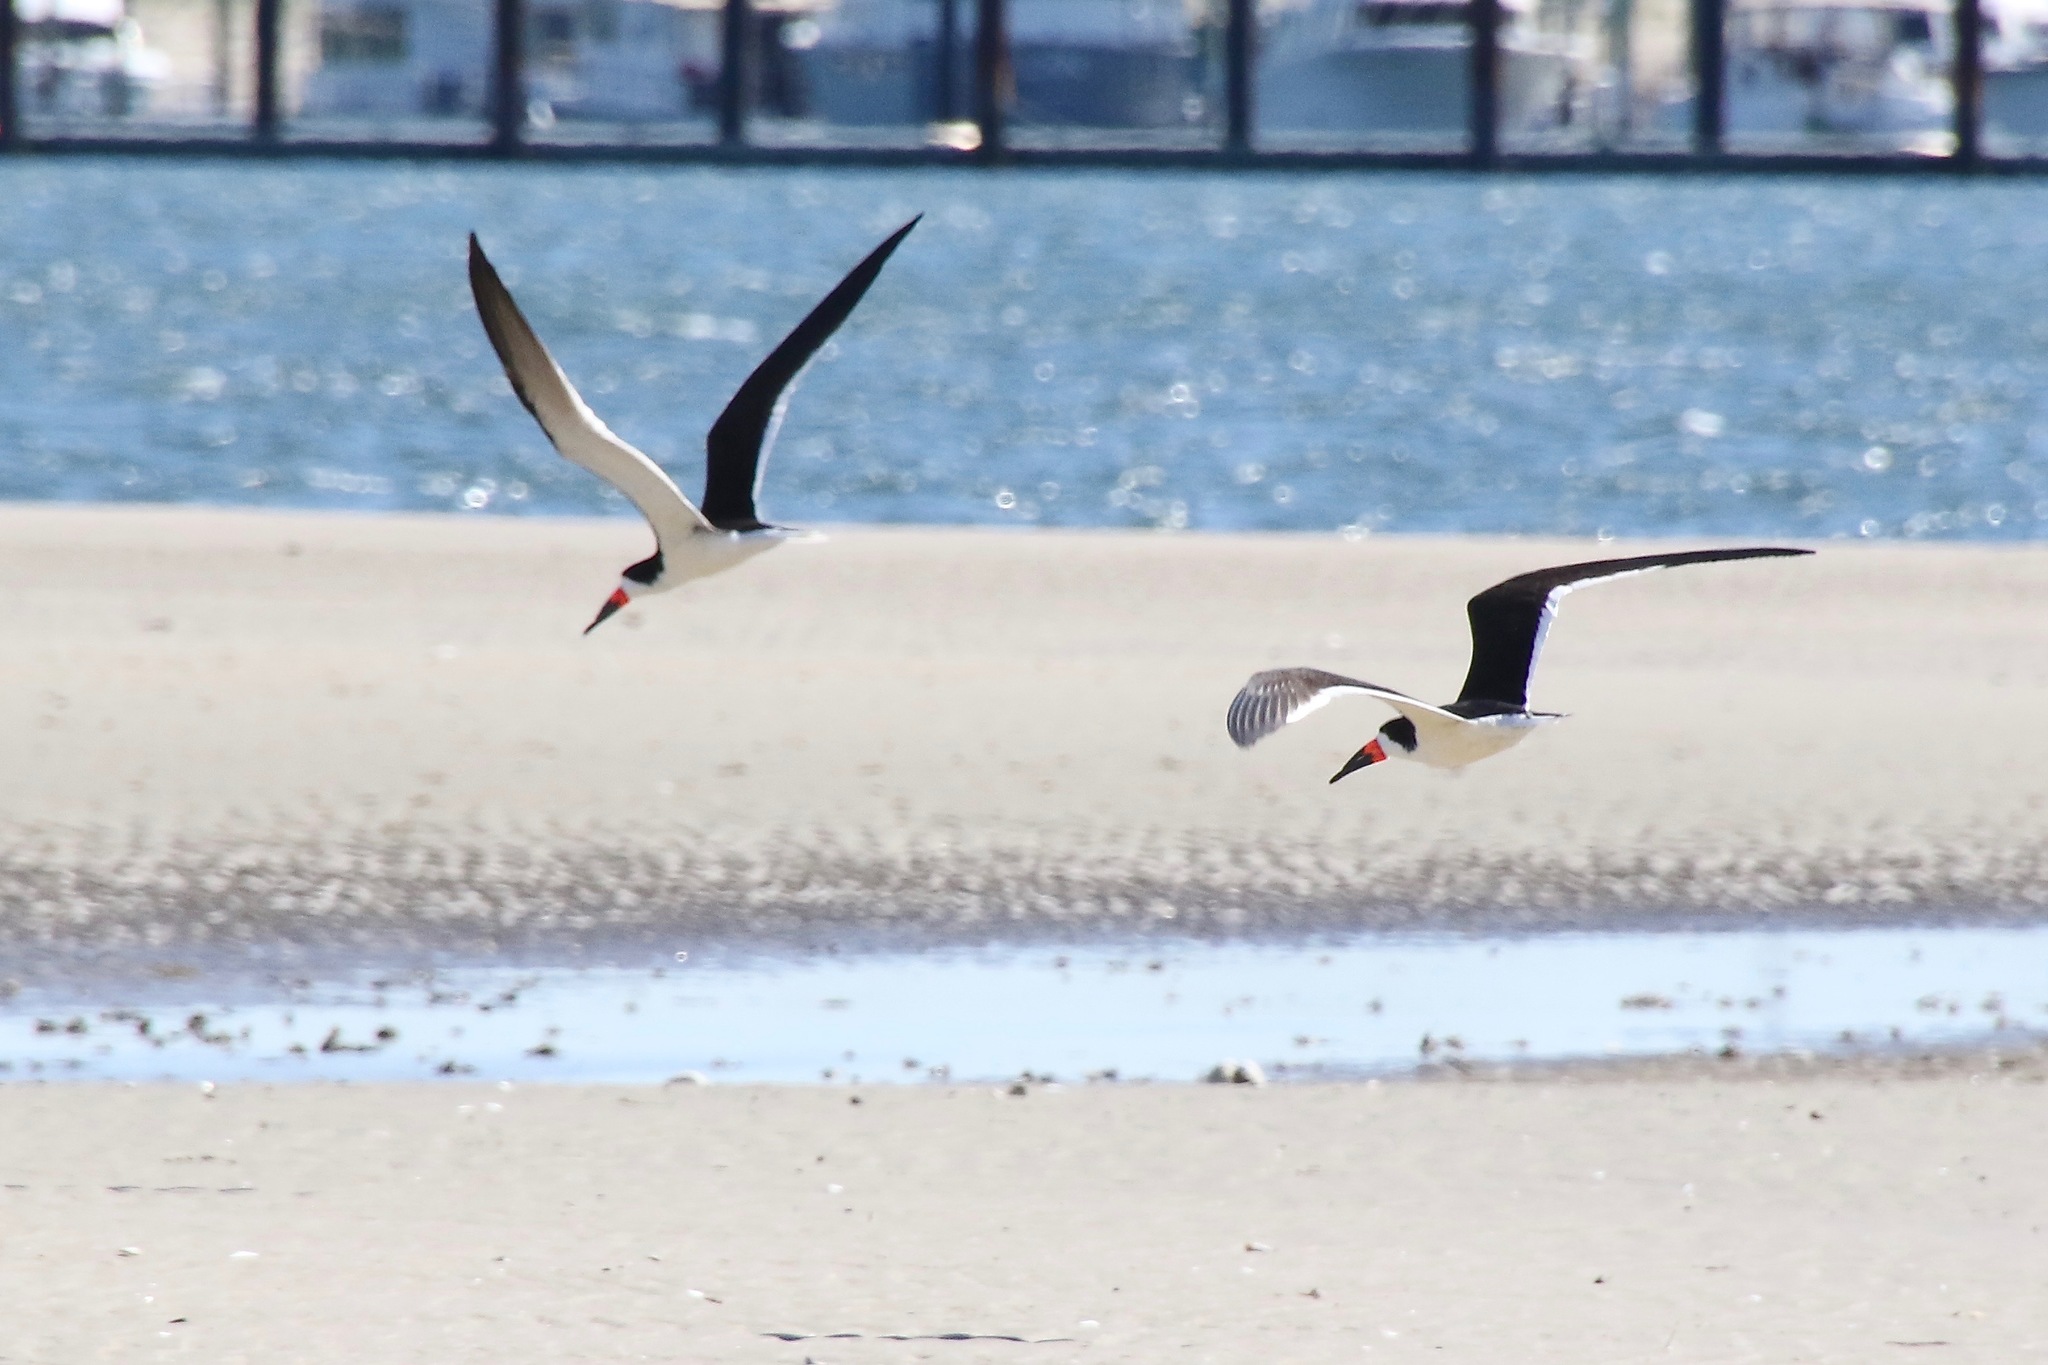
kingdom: Animalia
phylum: Chordata
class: Aves
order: Charadriiformes
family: Laridae
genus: Rynchops
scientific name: Rynchops niger
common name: Black skimmer
